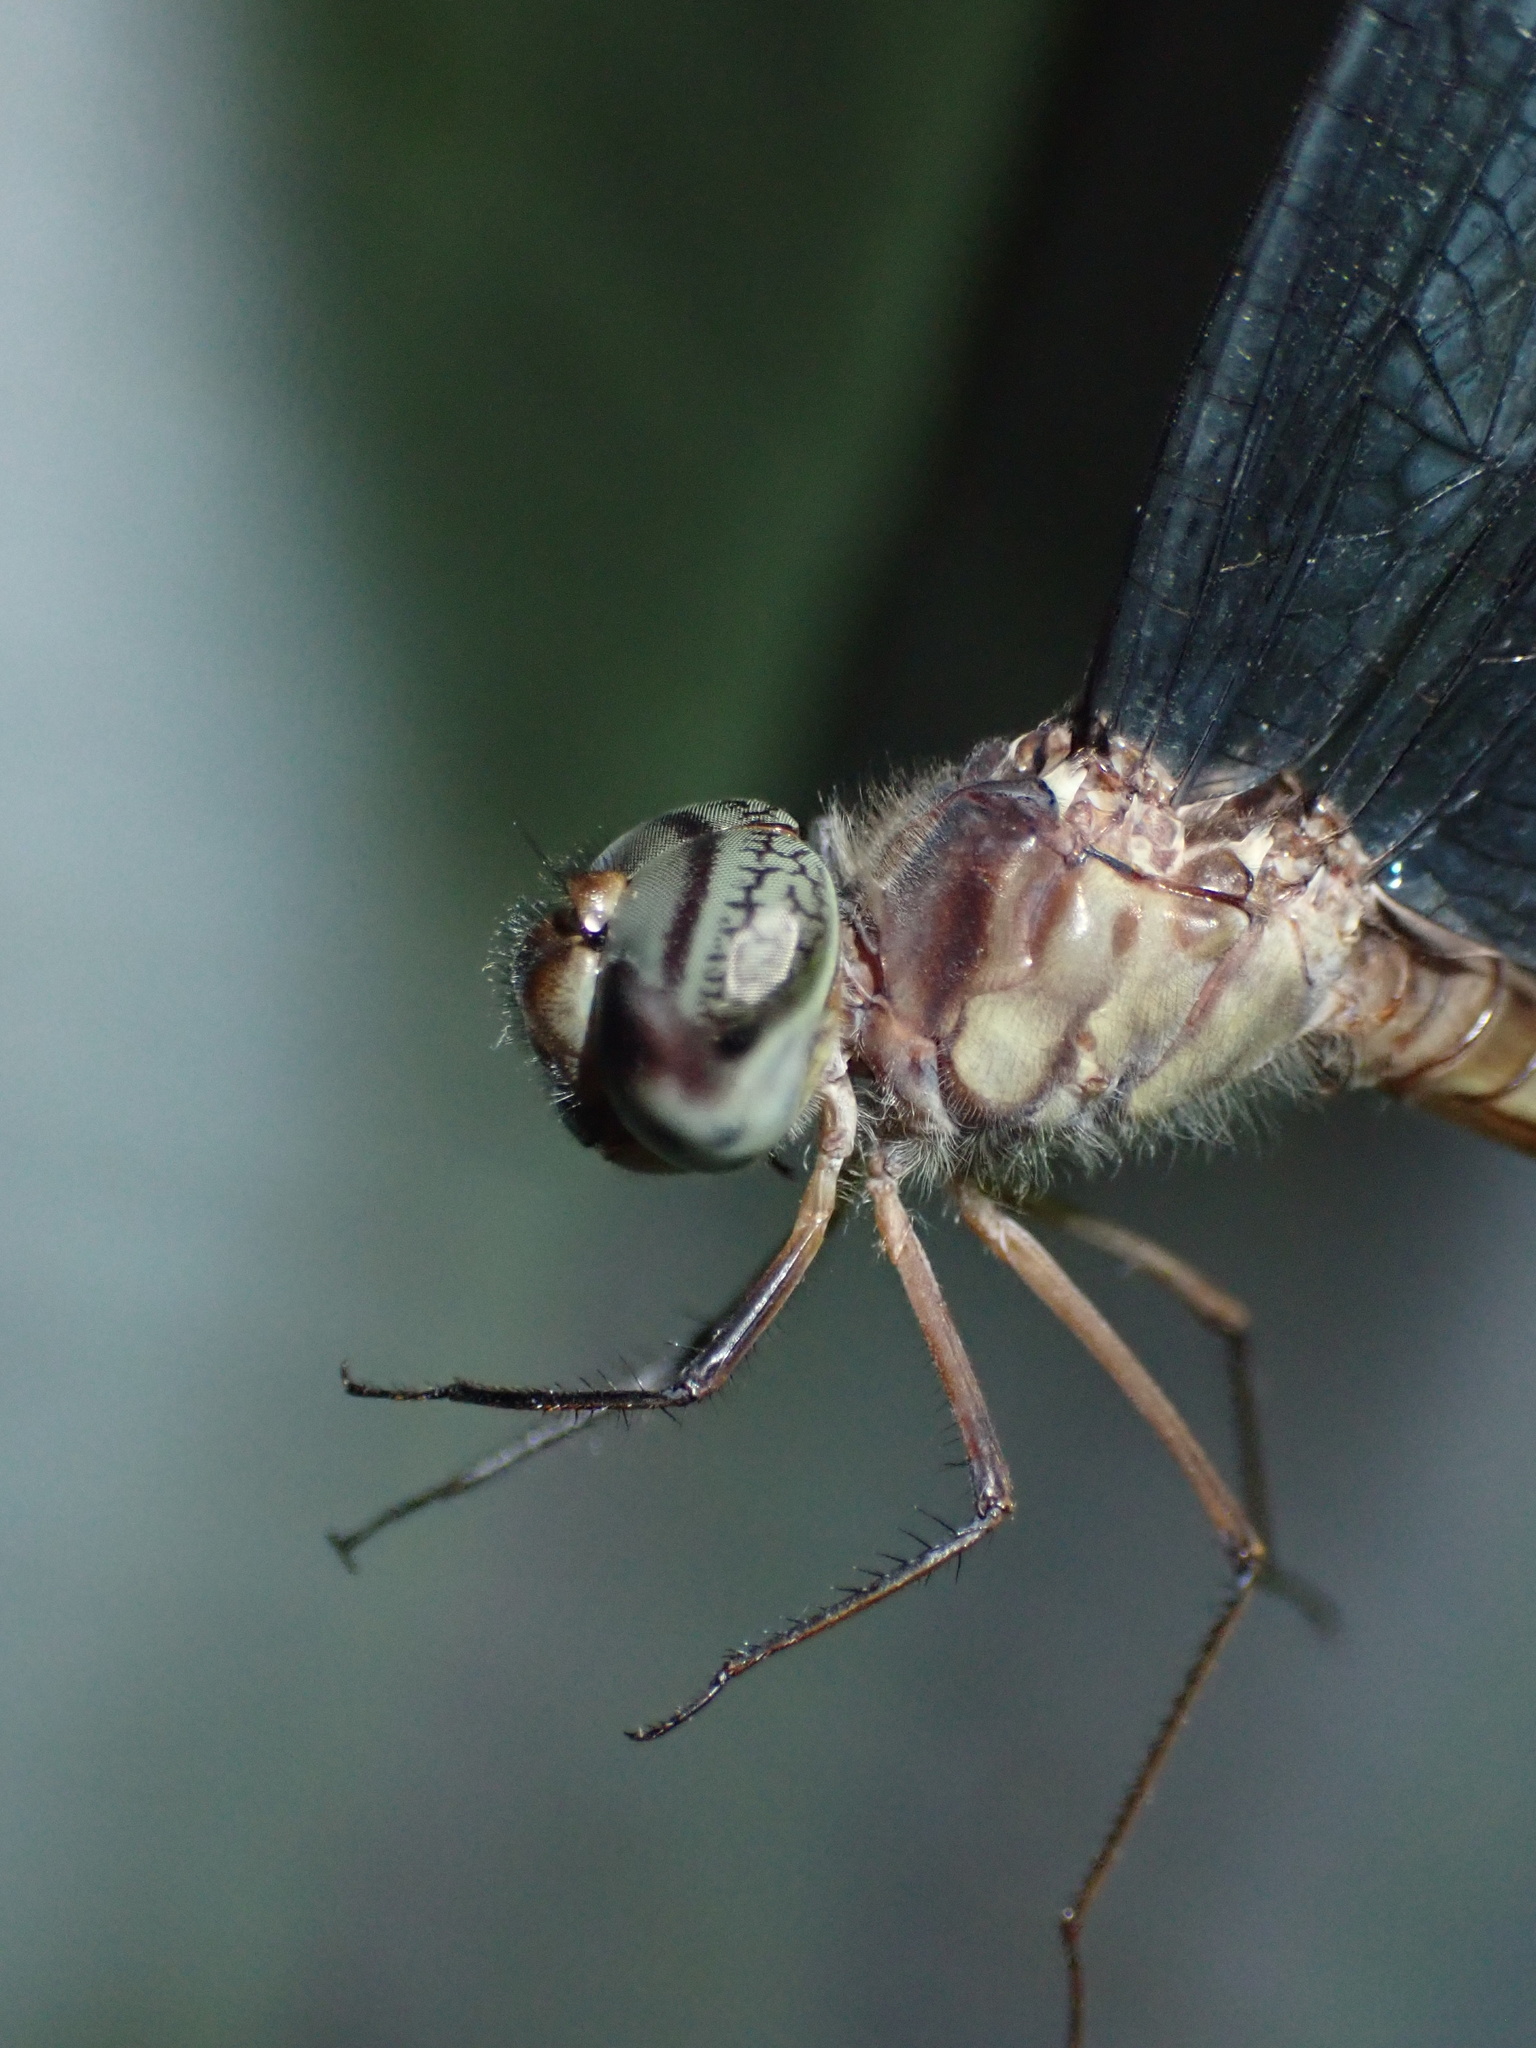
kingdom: Animalia
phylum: Arthropoda
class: Insecta
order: Odonata
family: Libellulidae
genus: Parazyxomma
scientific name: Parazyxomma flavicans
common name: Banded duskdarter
